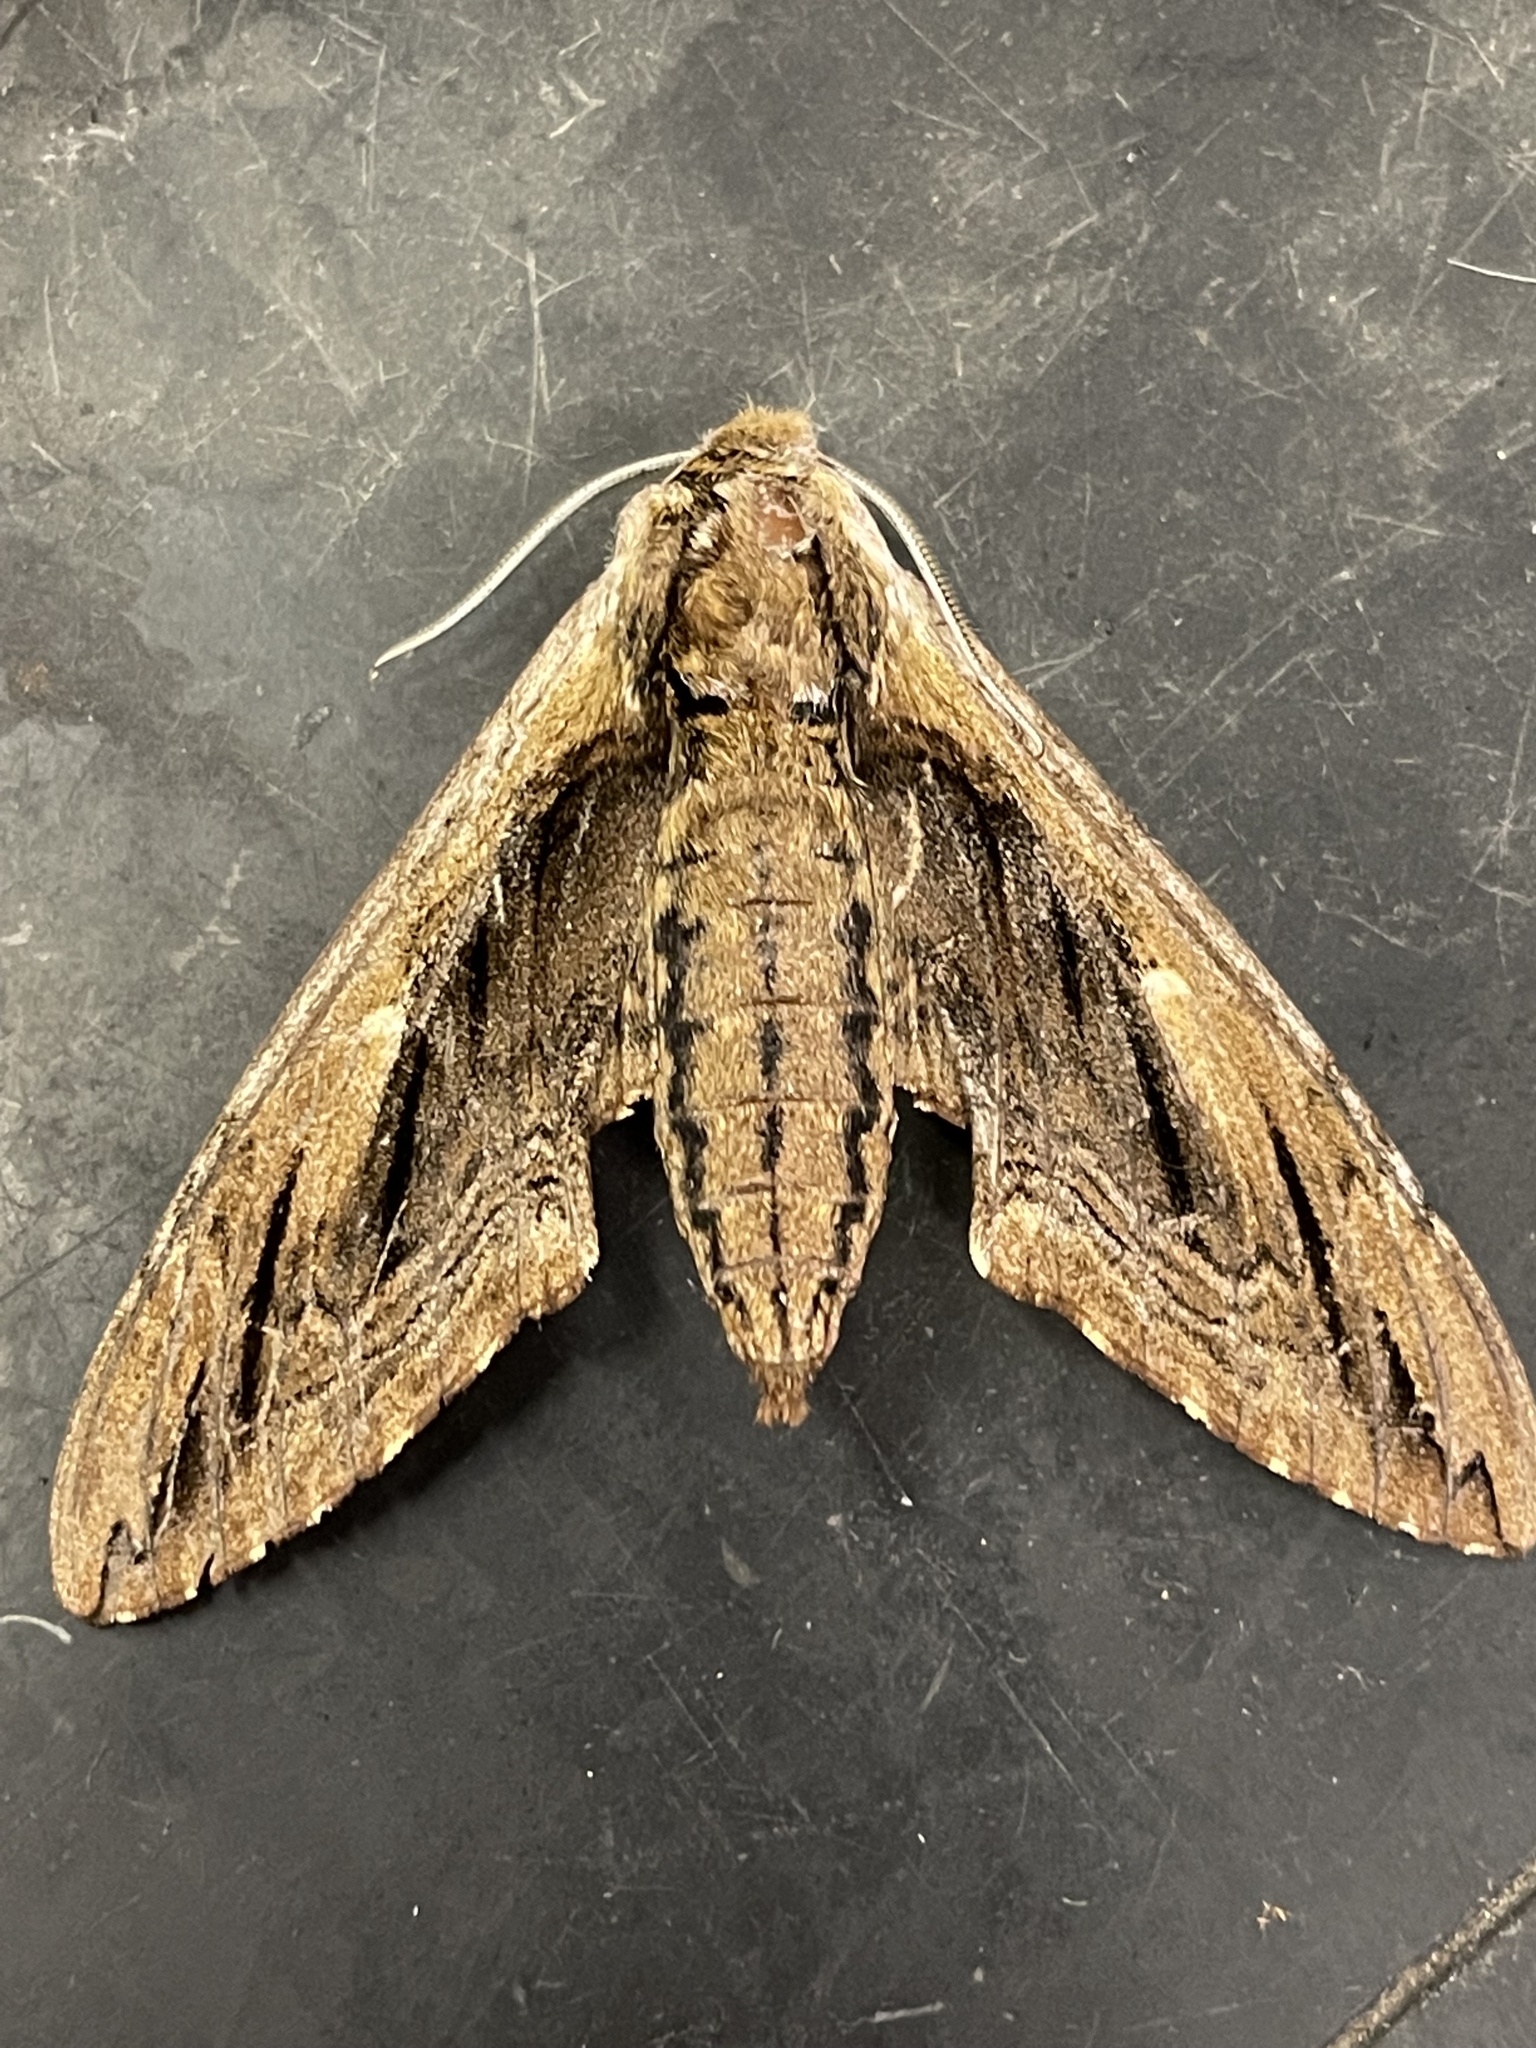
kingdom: Animalia
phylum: Arthropoda
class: Insecta
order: Lepidoptera
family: Sphingidae
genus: Ceratomia
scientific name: Ceratomia amyntor
